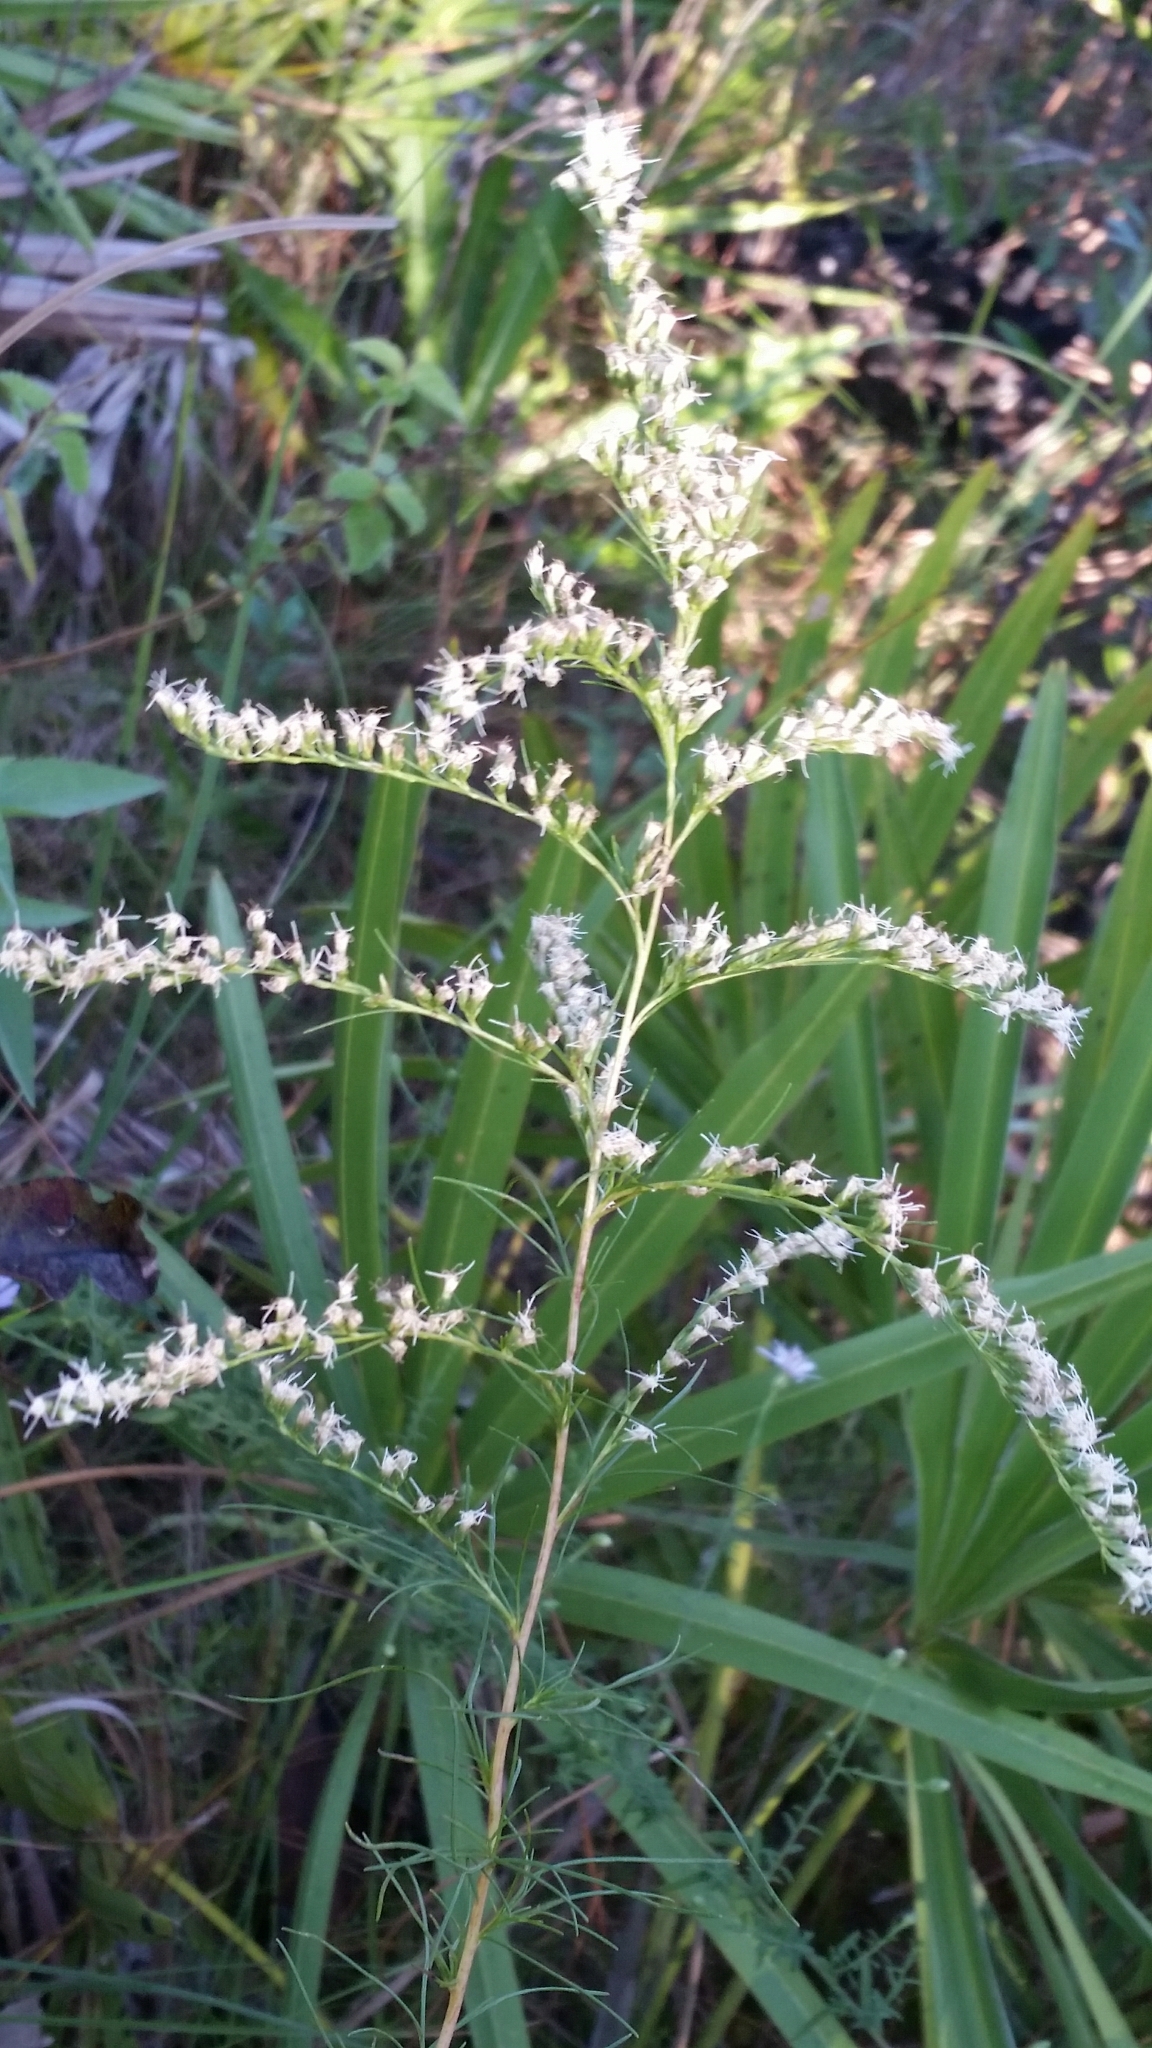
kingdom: Plantae
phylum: Tracheophyta
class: Magnoliopsida
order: Asterales
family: Asteraceae
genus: Eupatorium
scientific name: Eupatorium leptophyllum
